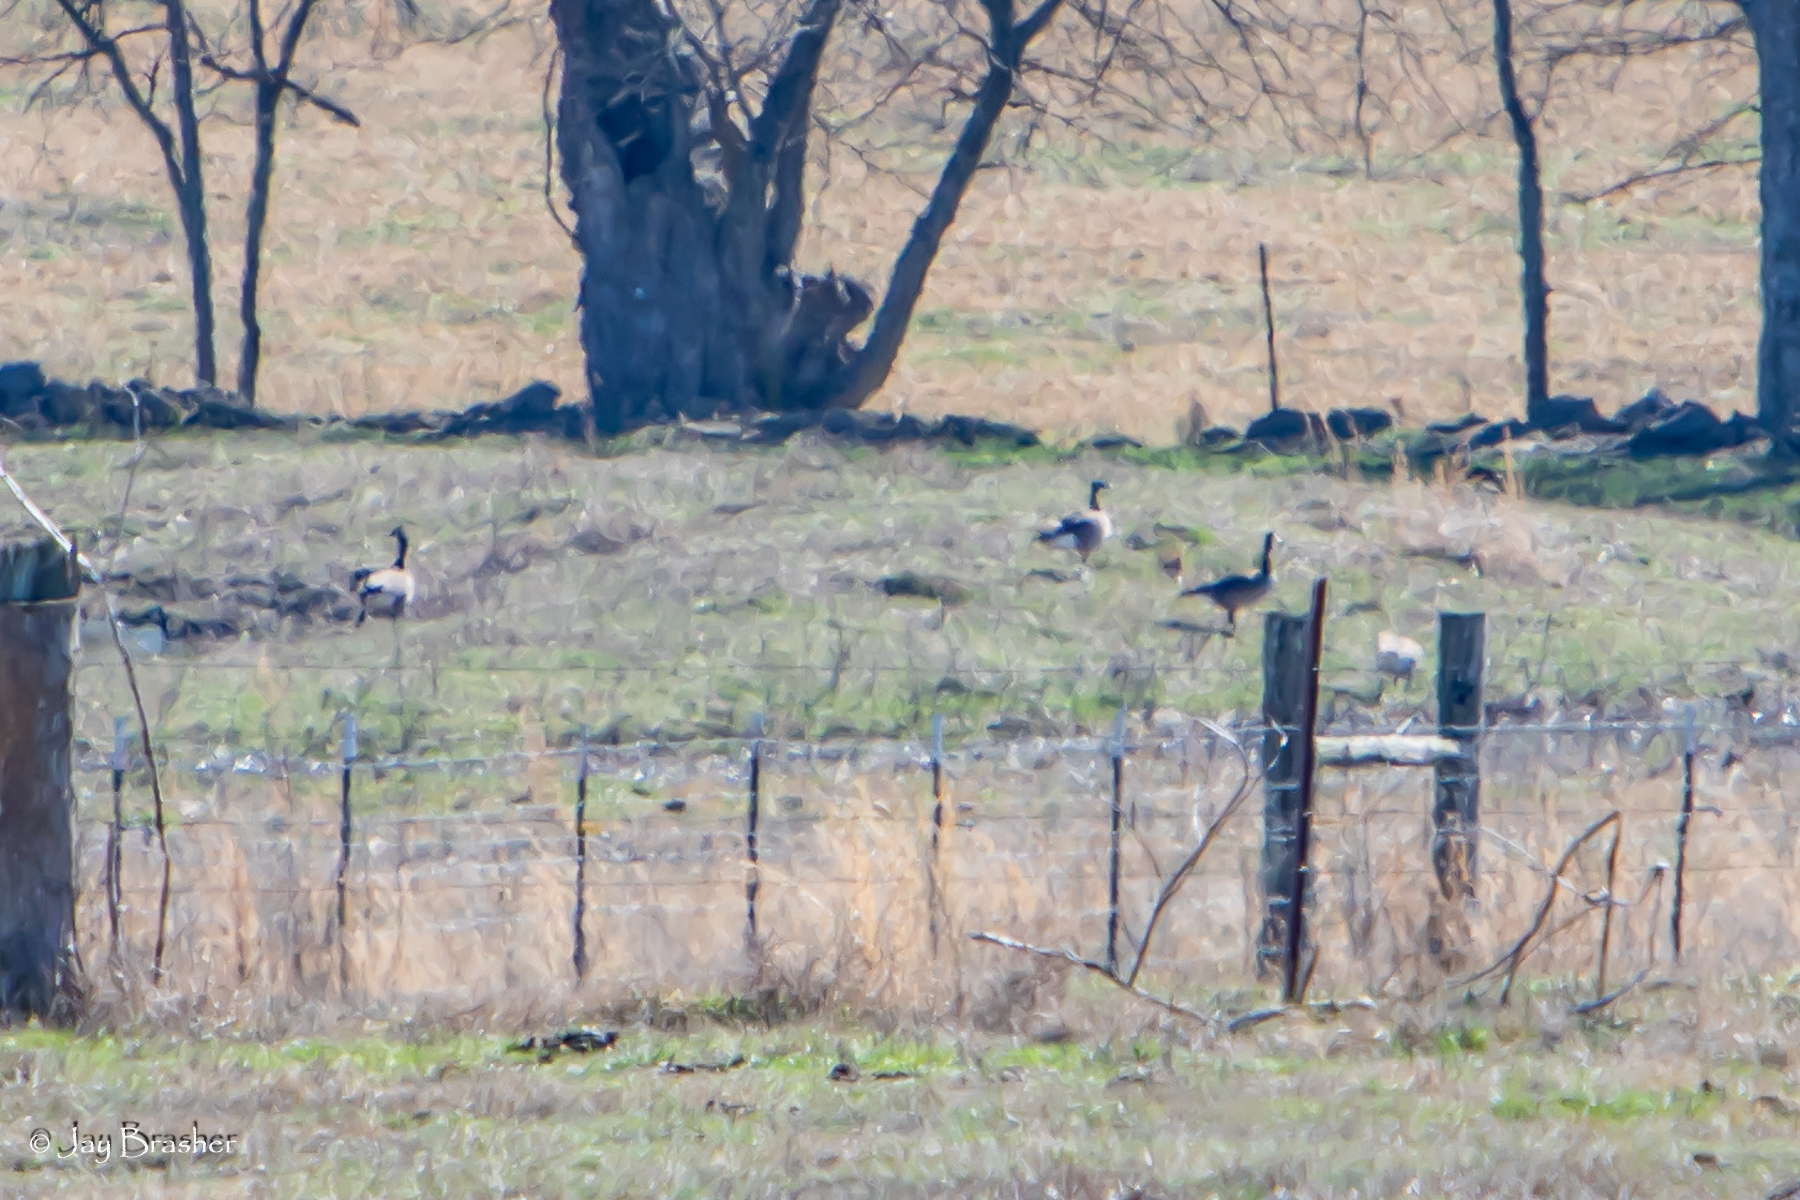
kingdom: Animalia
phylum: Chordata
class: Aves
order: Anseriformes
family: Anatidae
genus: Branta
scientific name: Branta canadensis
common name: Canada goose
